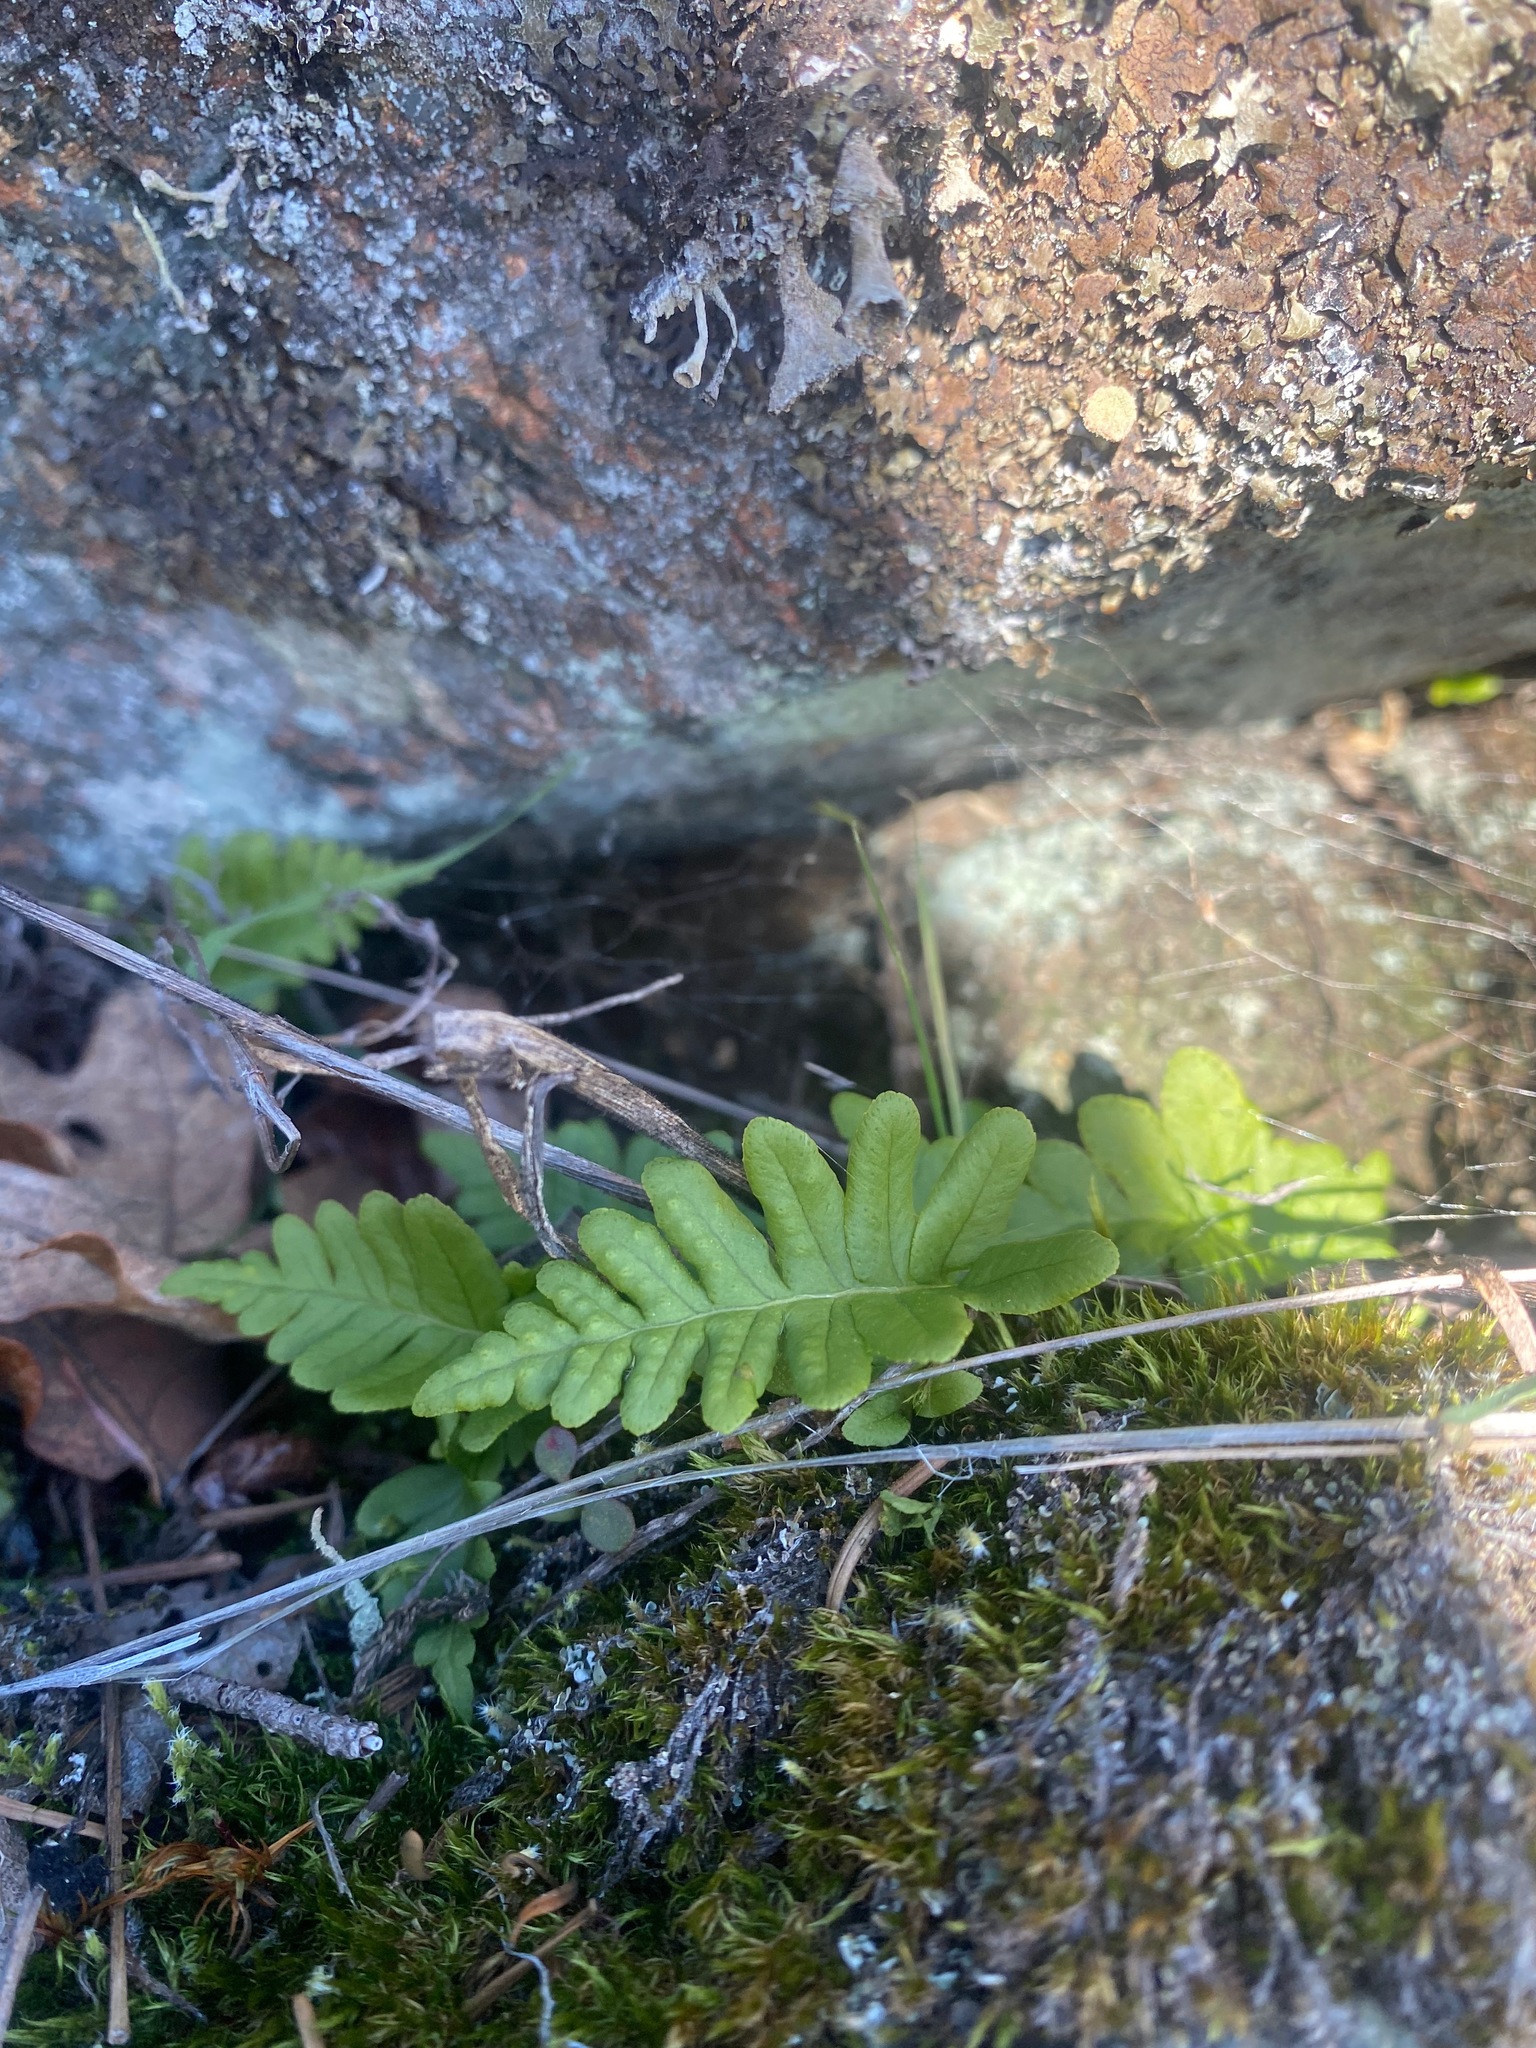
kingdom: Plantae
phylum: Tracheophyta
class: Polypodiopsida
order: Polypodiales
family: Polypodiaceae
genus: Polypodium
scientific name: Polypodium glycyrrhiza
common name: Licorice fern
